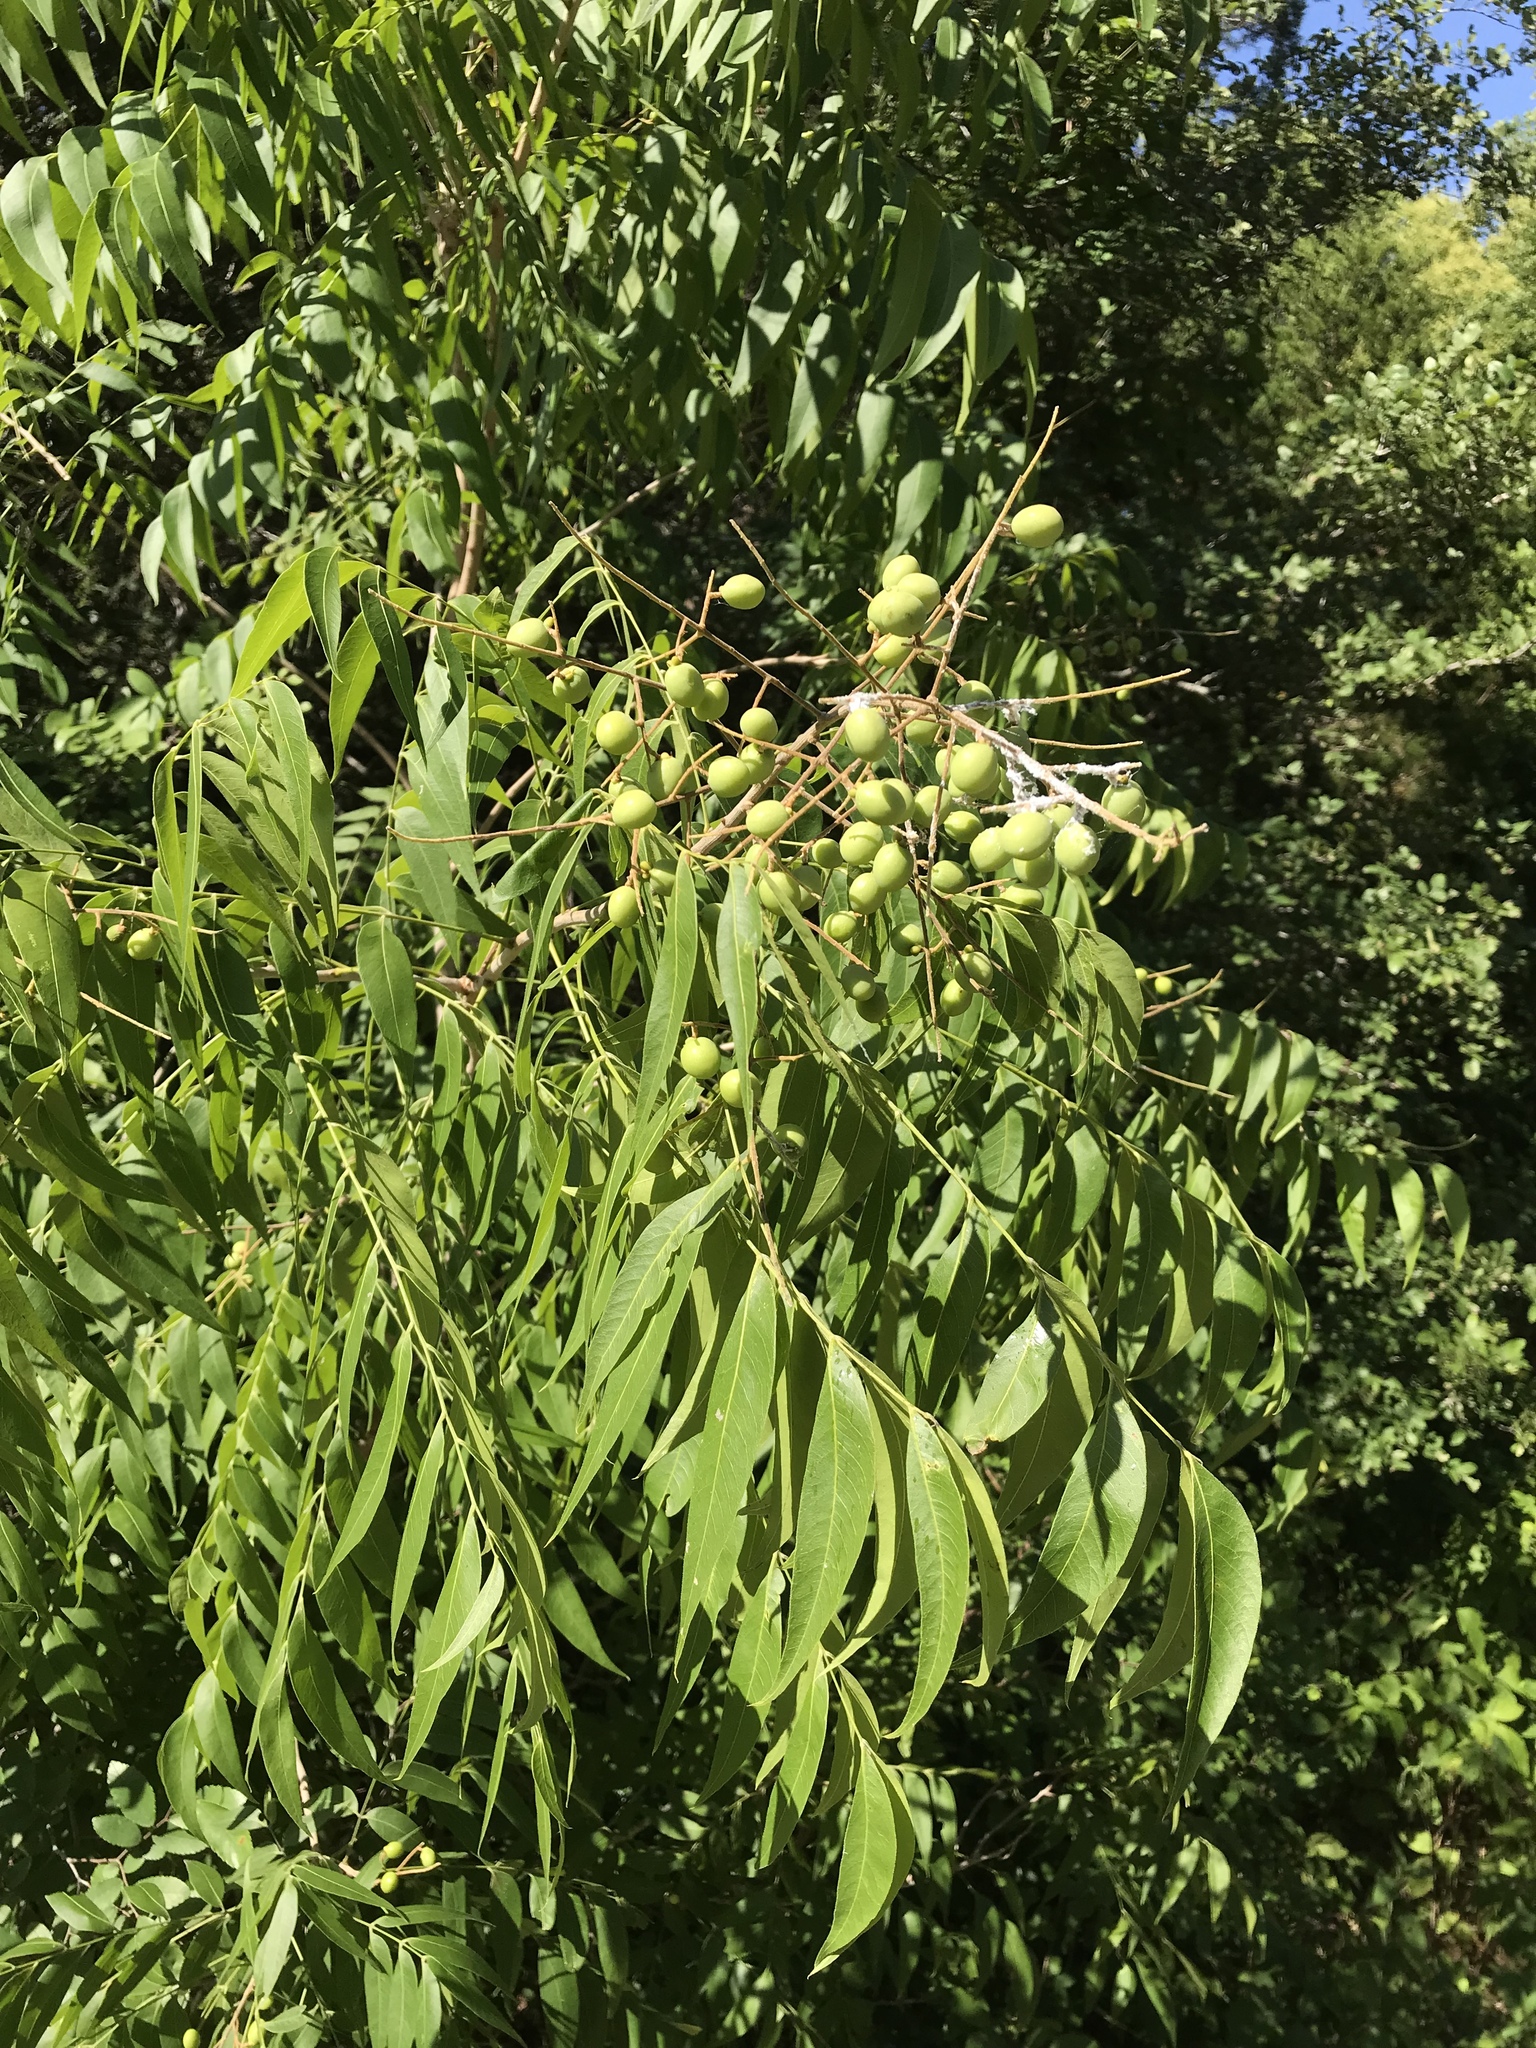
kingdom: Plantae
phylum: Tracheophyta
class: Magnoliopsida
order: Sapindales
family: Sapindaceae
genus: Sapindus
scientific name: Sapindus drummondii
